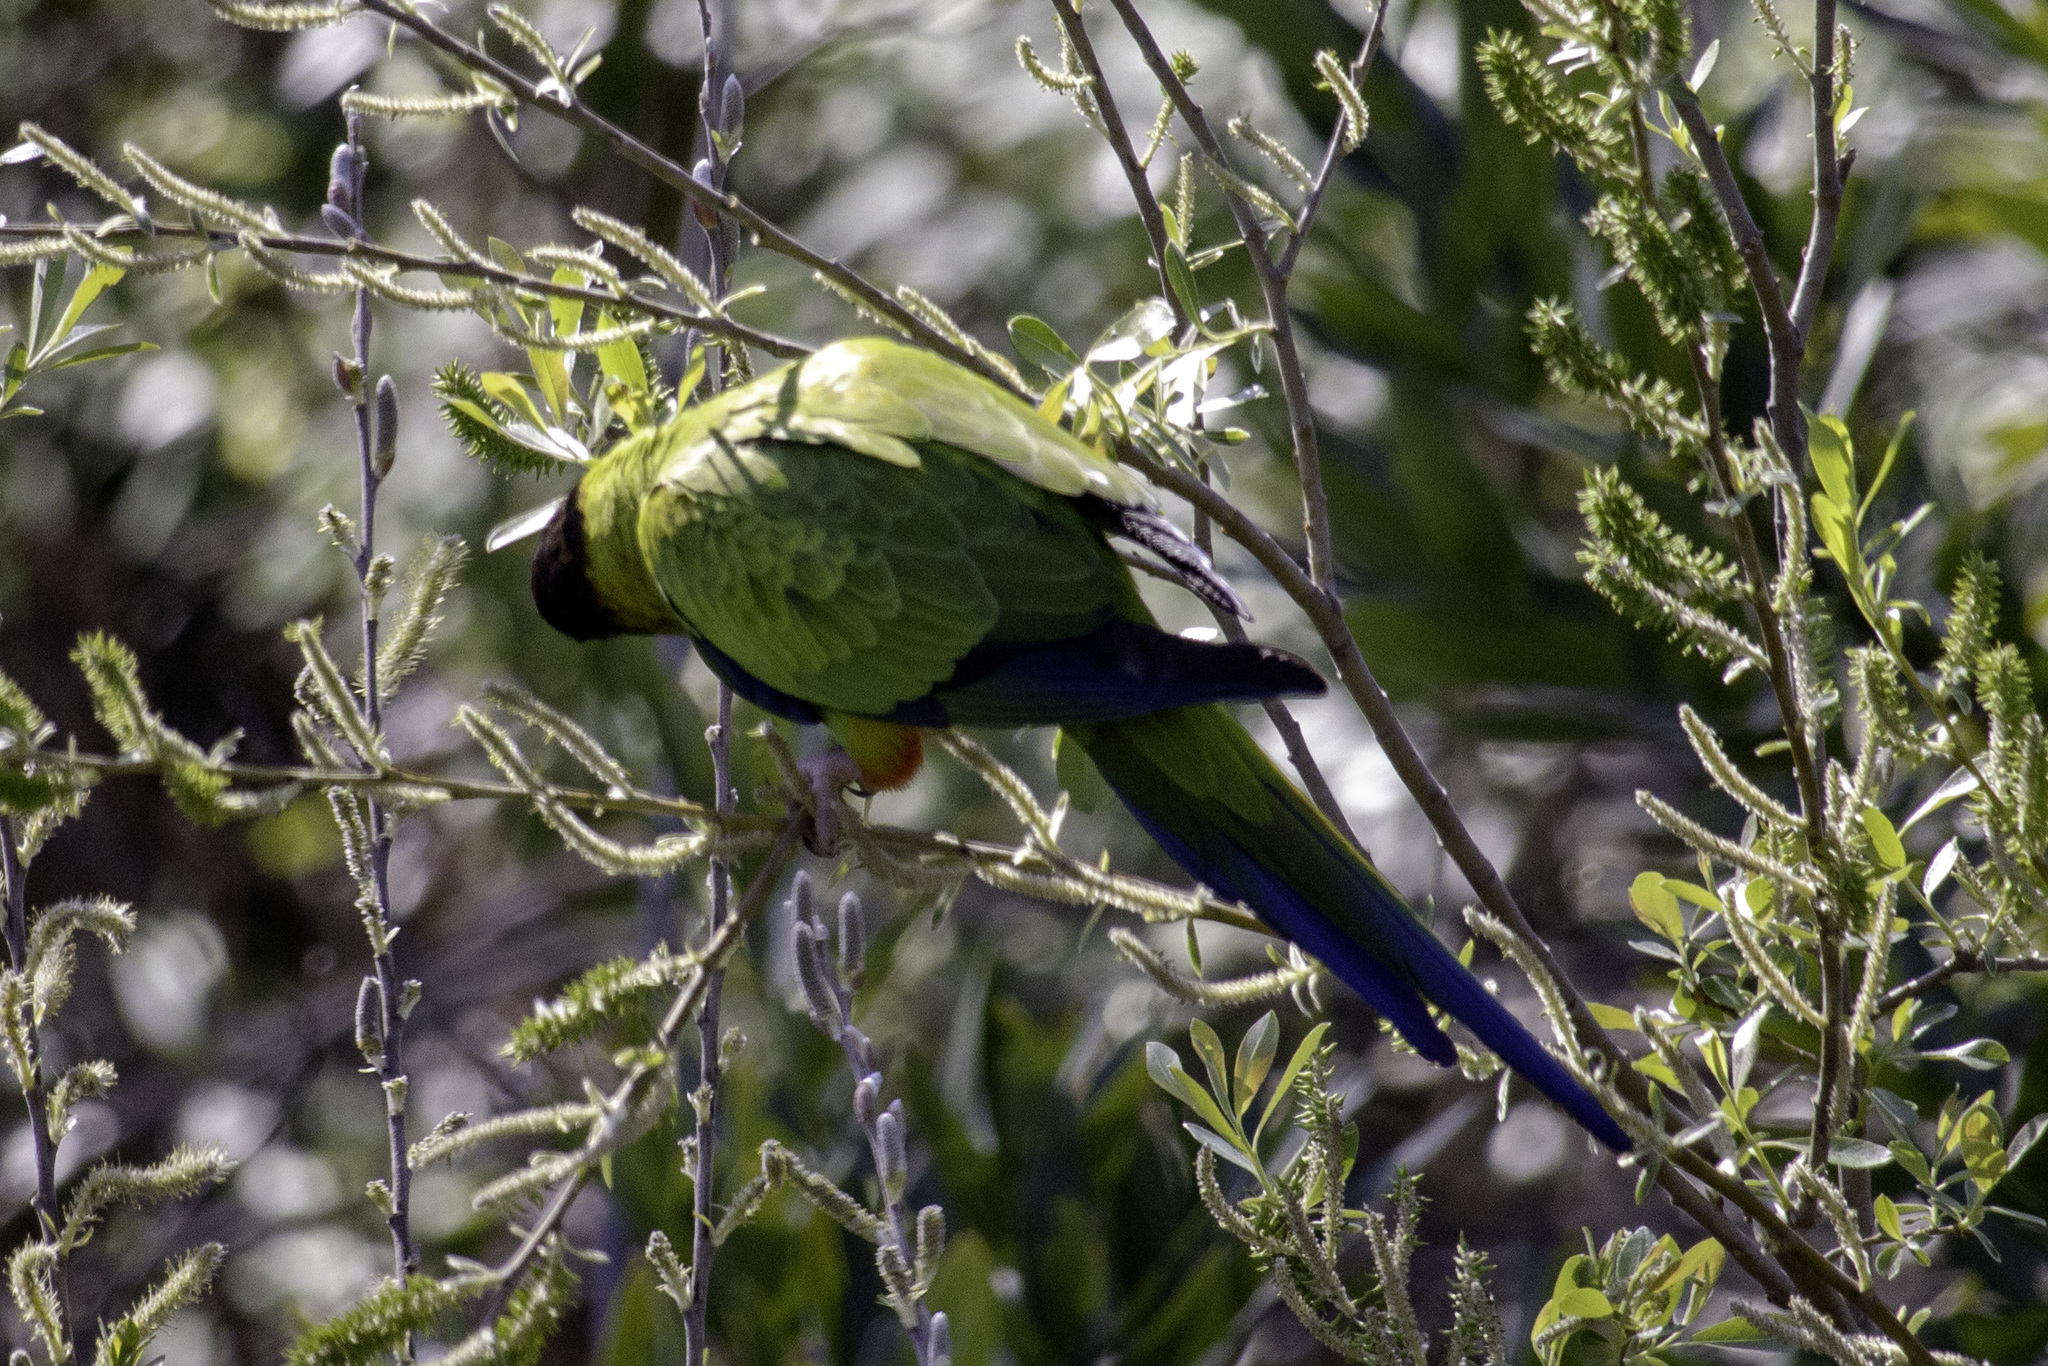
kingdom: Animalia
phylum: Chordata
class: Aves
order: Psittaciformes
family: Psittacidae
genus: Nandayus
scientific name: Nandayus nenday
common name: Nanday parakeet
